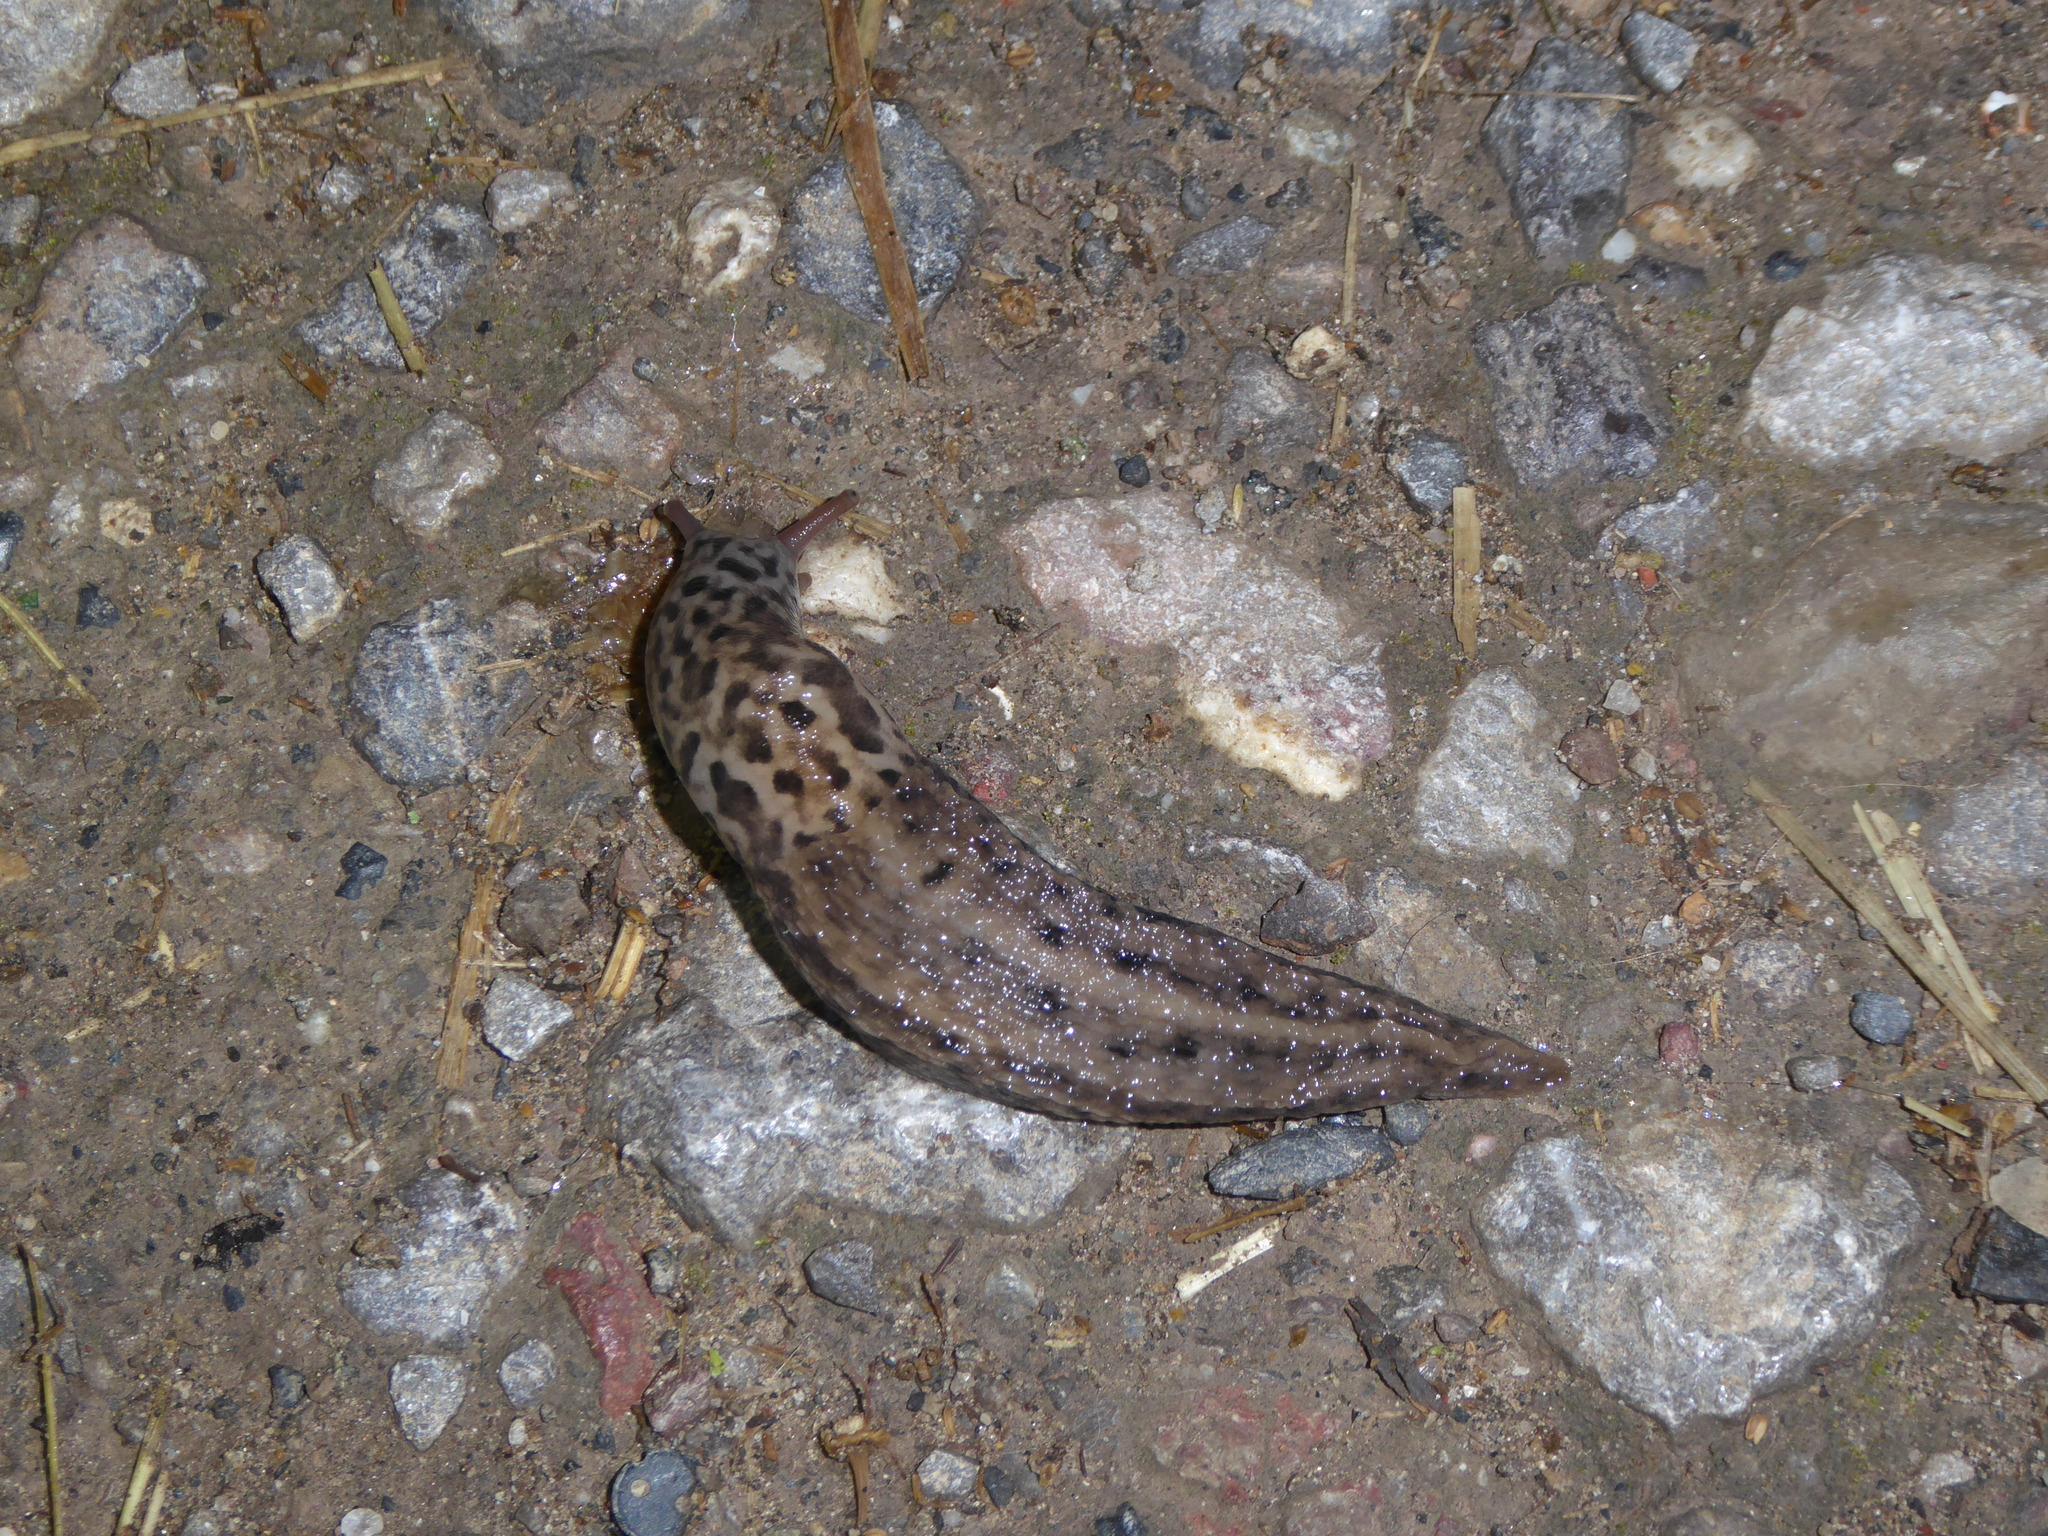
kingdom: Animalia
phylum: Mollusca
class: Gastropoda
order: Stylommatophora
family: Limacidae
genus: Limax
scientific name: Limax maximus
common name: Great grey slug
